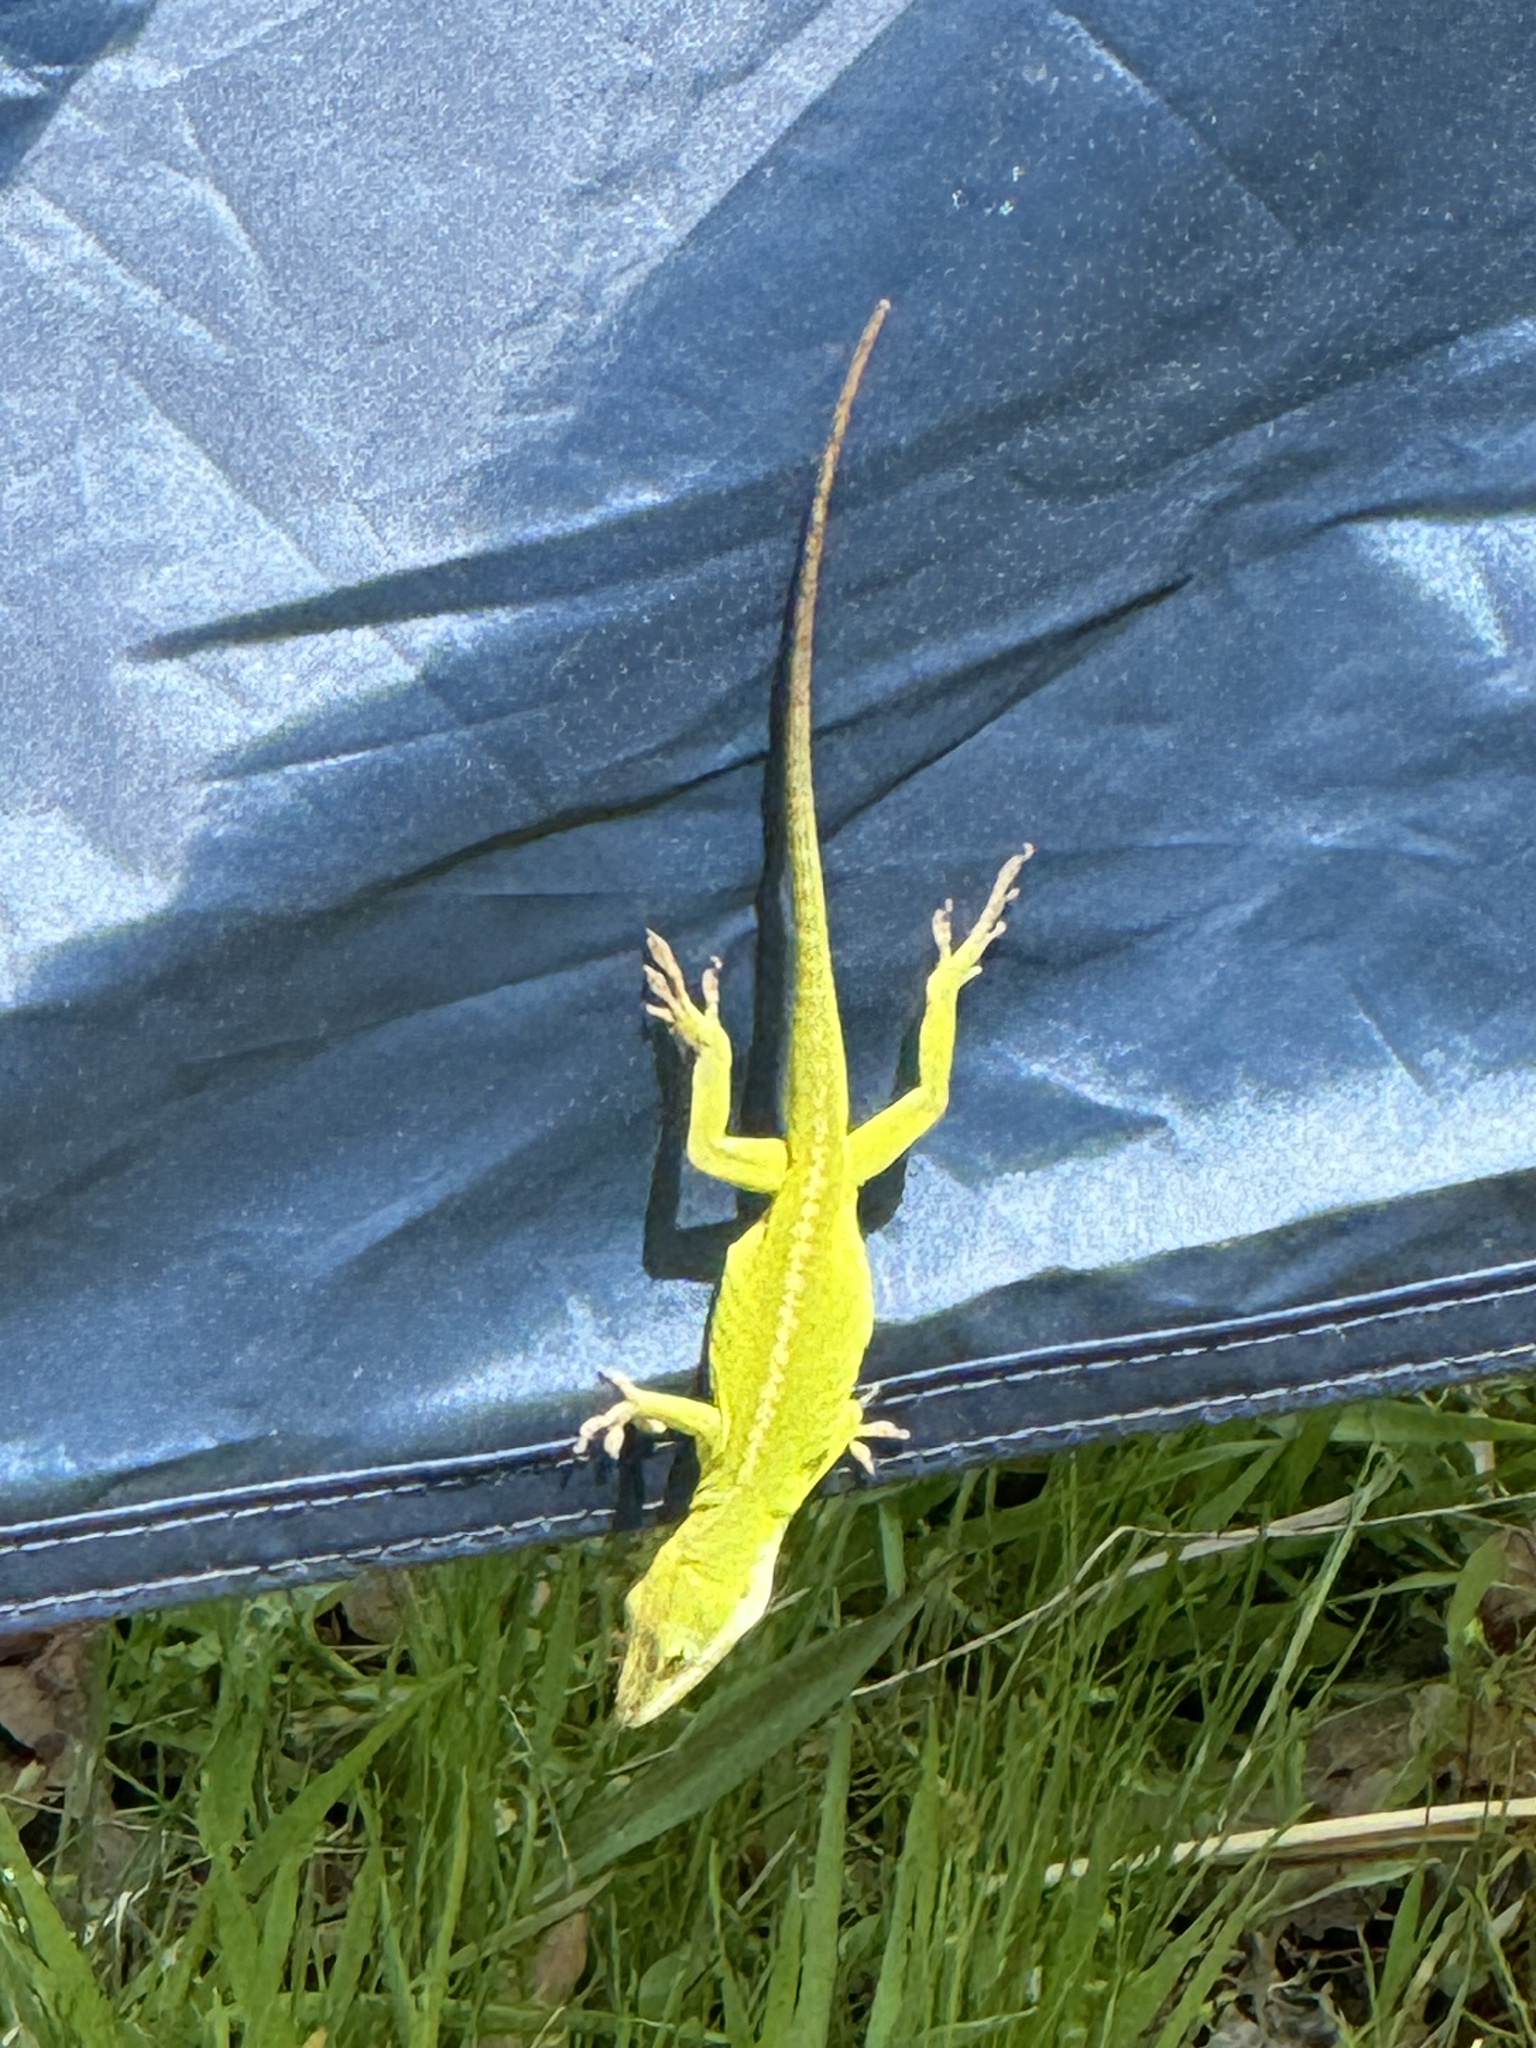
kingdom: Animalia
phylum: Chordata
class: Squamata
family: Dactyloidae
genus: Anolis
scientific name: Anolis carolinensis
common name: Green anole
